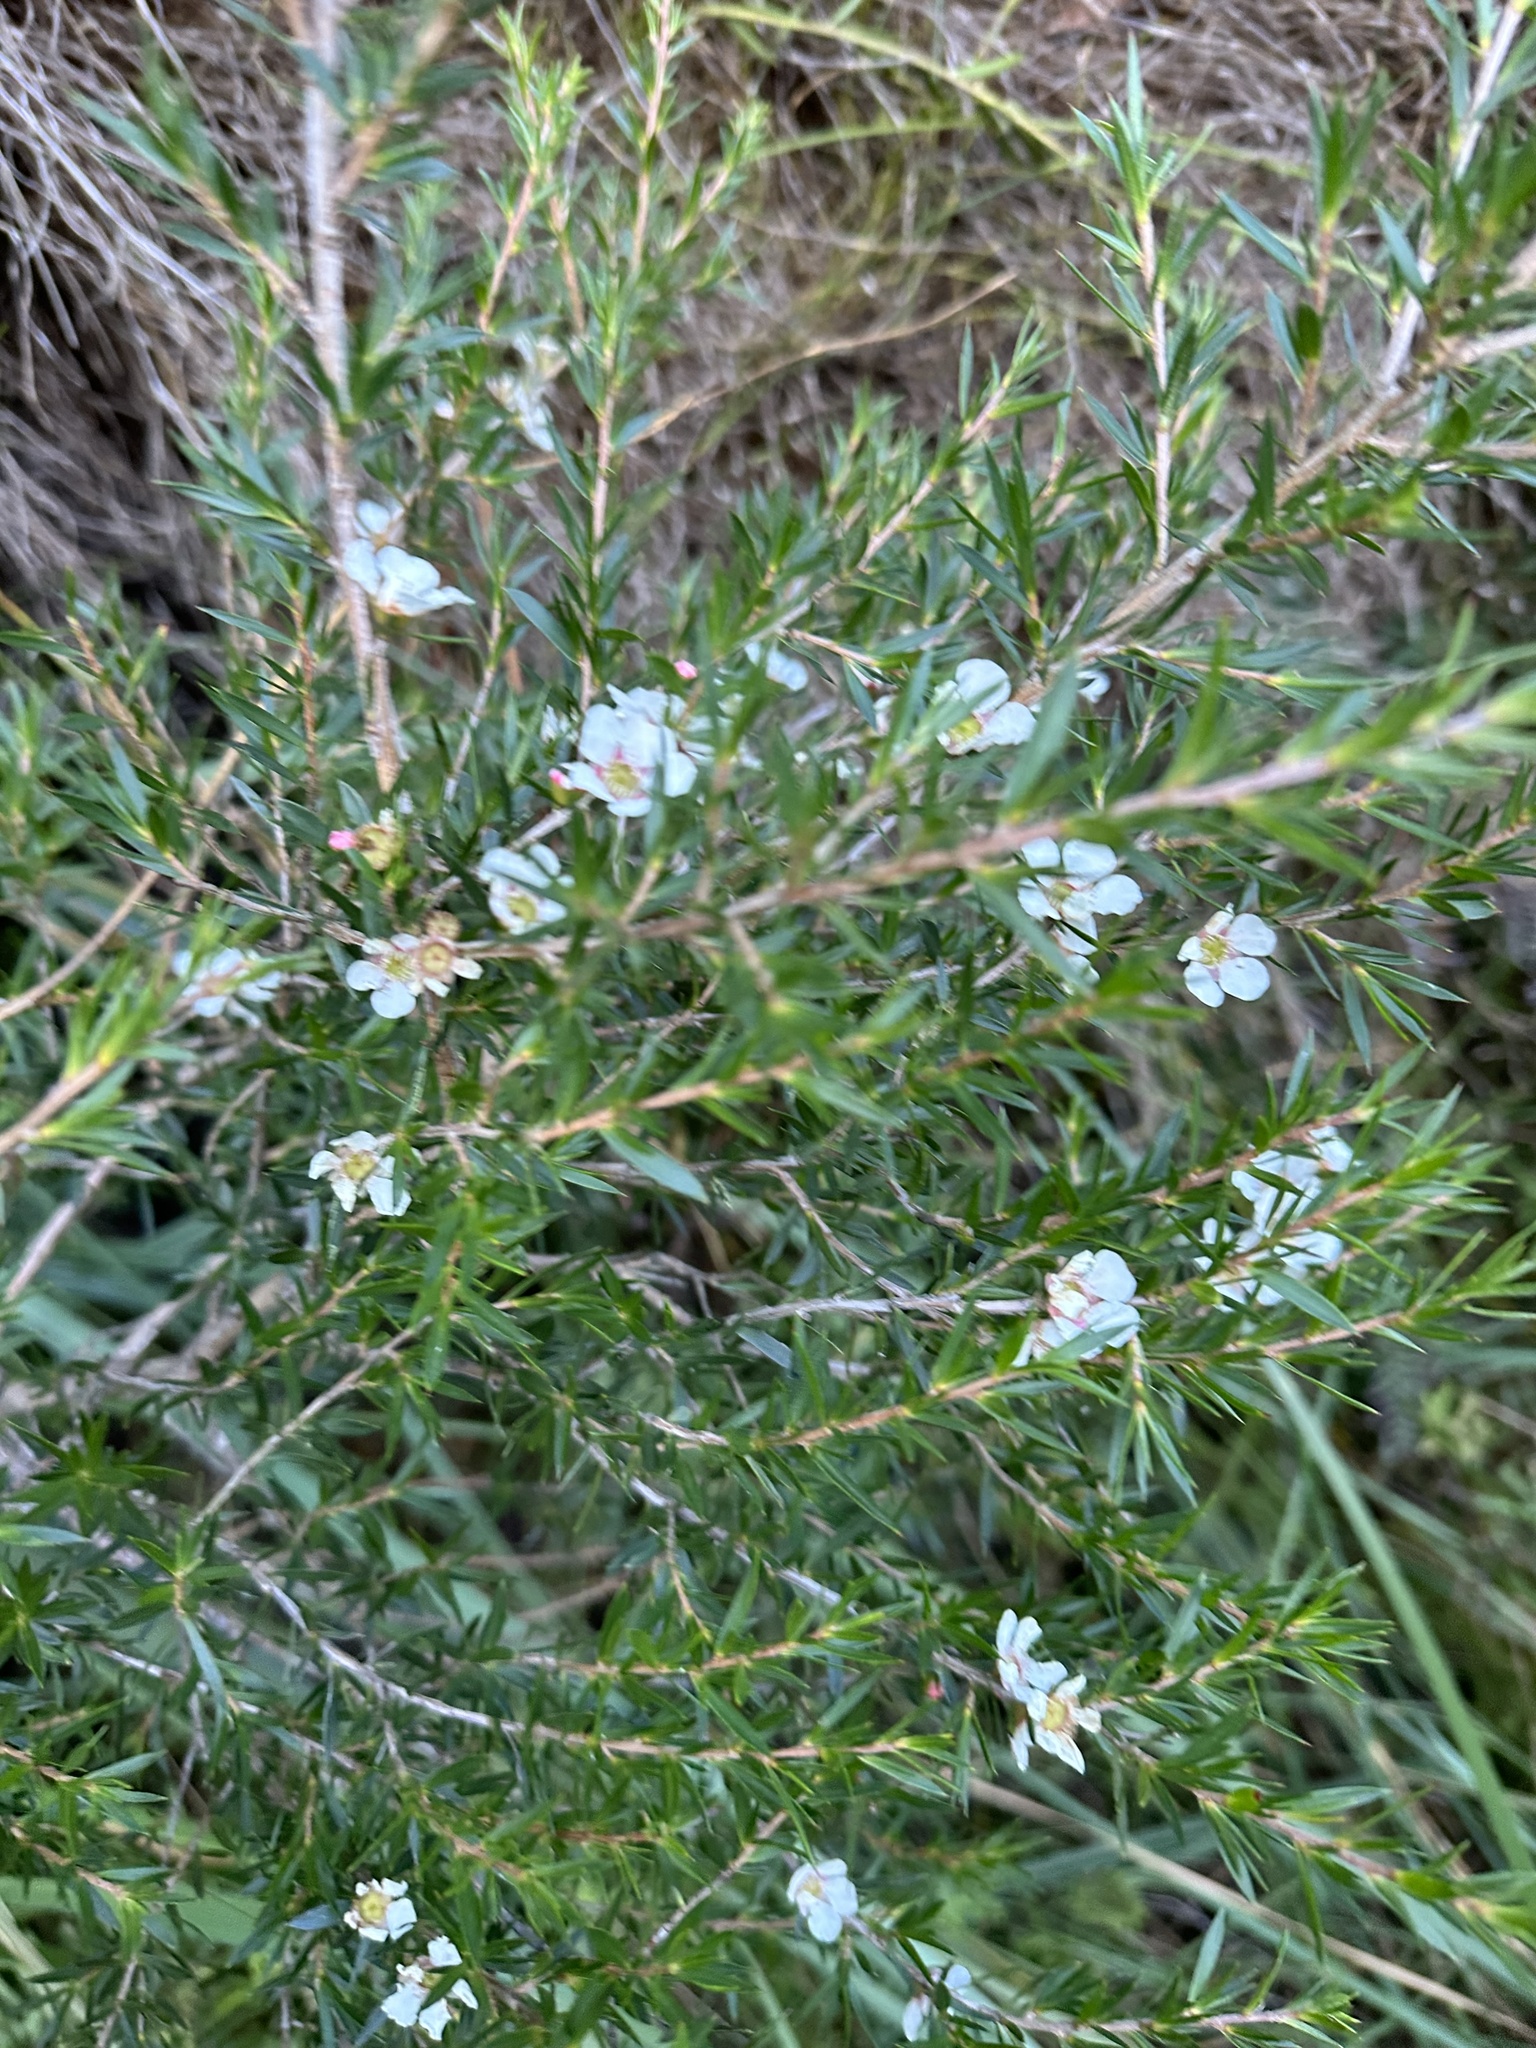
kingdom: Plantae
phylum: Tracheophyta
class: Magnoliopsida
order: Myrtales
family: Myrtaceae
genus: Leptospermum
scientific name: Leptospermum continentale
